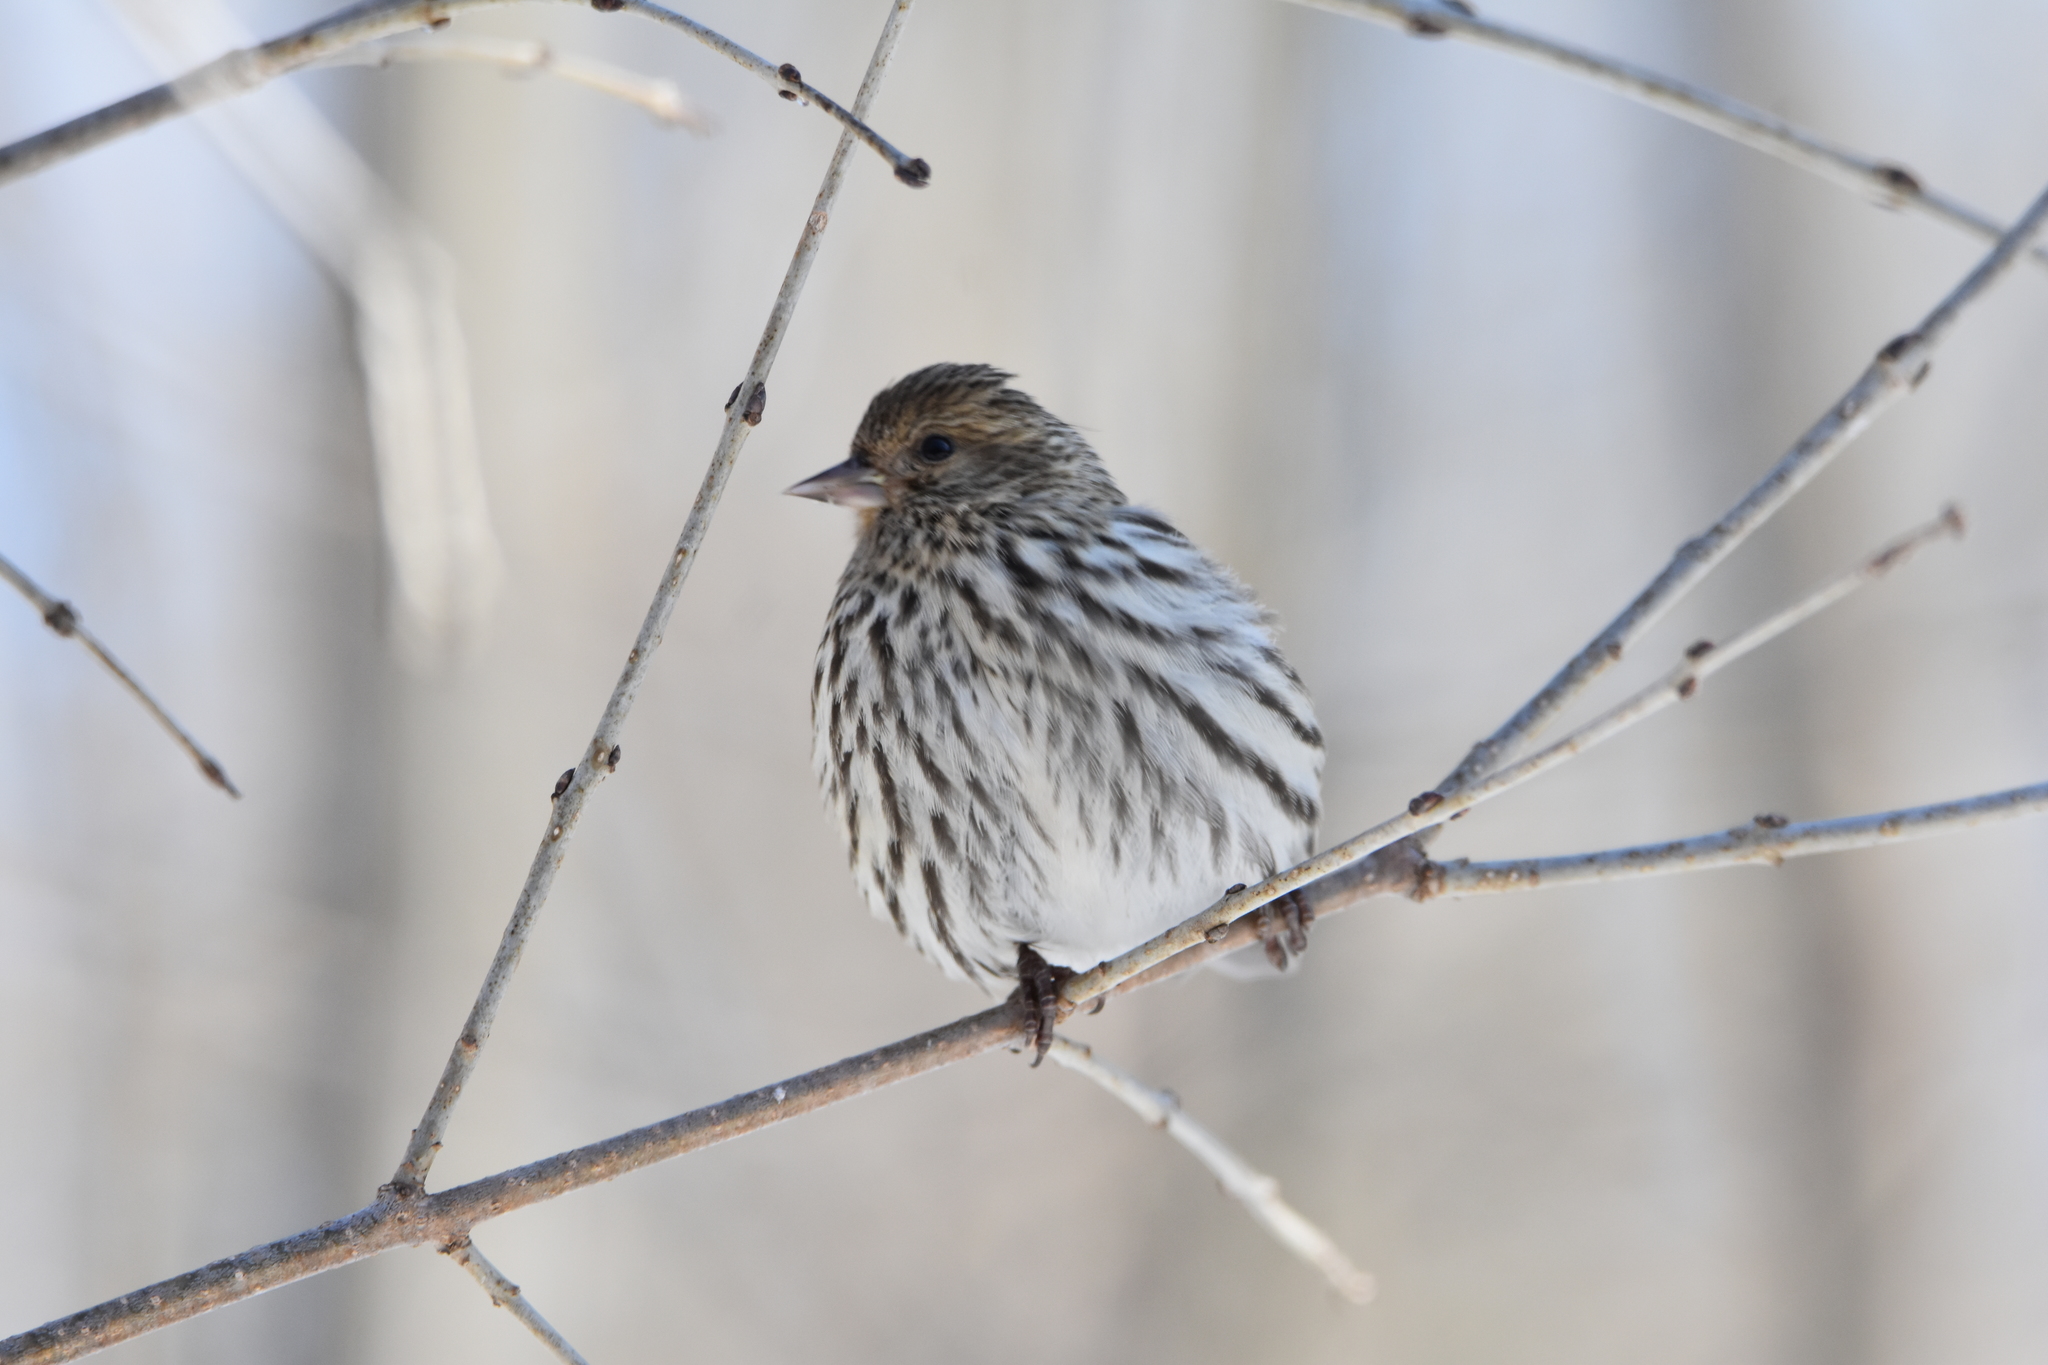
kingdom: Animalia
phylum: Chordata
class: Aves
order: Passeriformes
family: Fringillidae
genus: Spinus
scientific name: Spinus pinus
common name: Pine siskin
